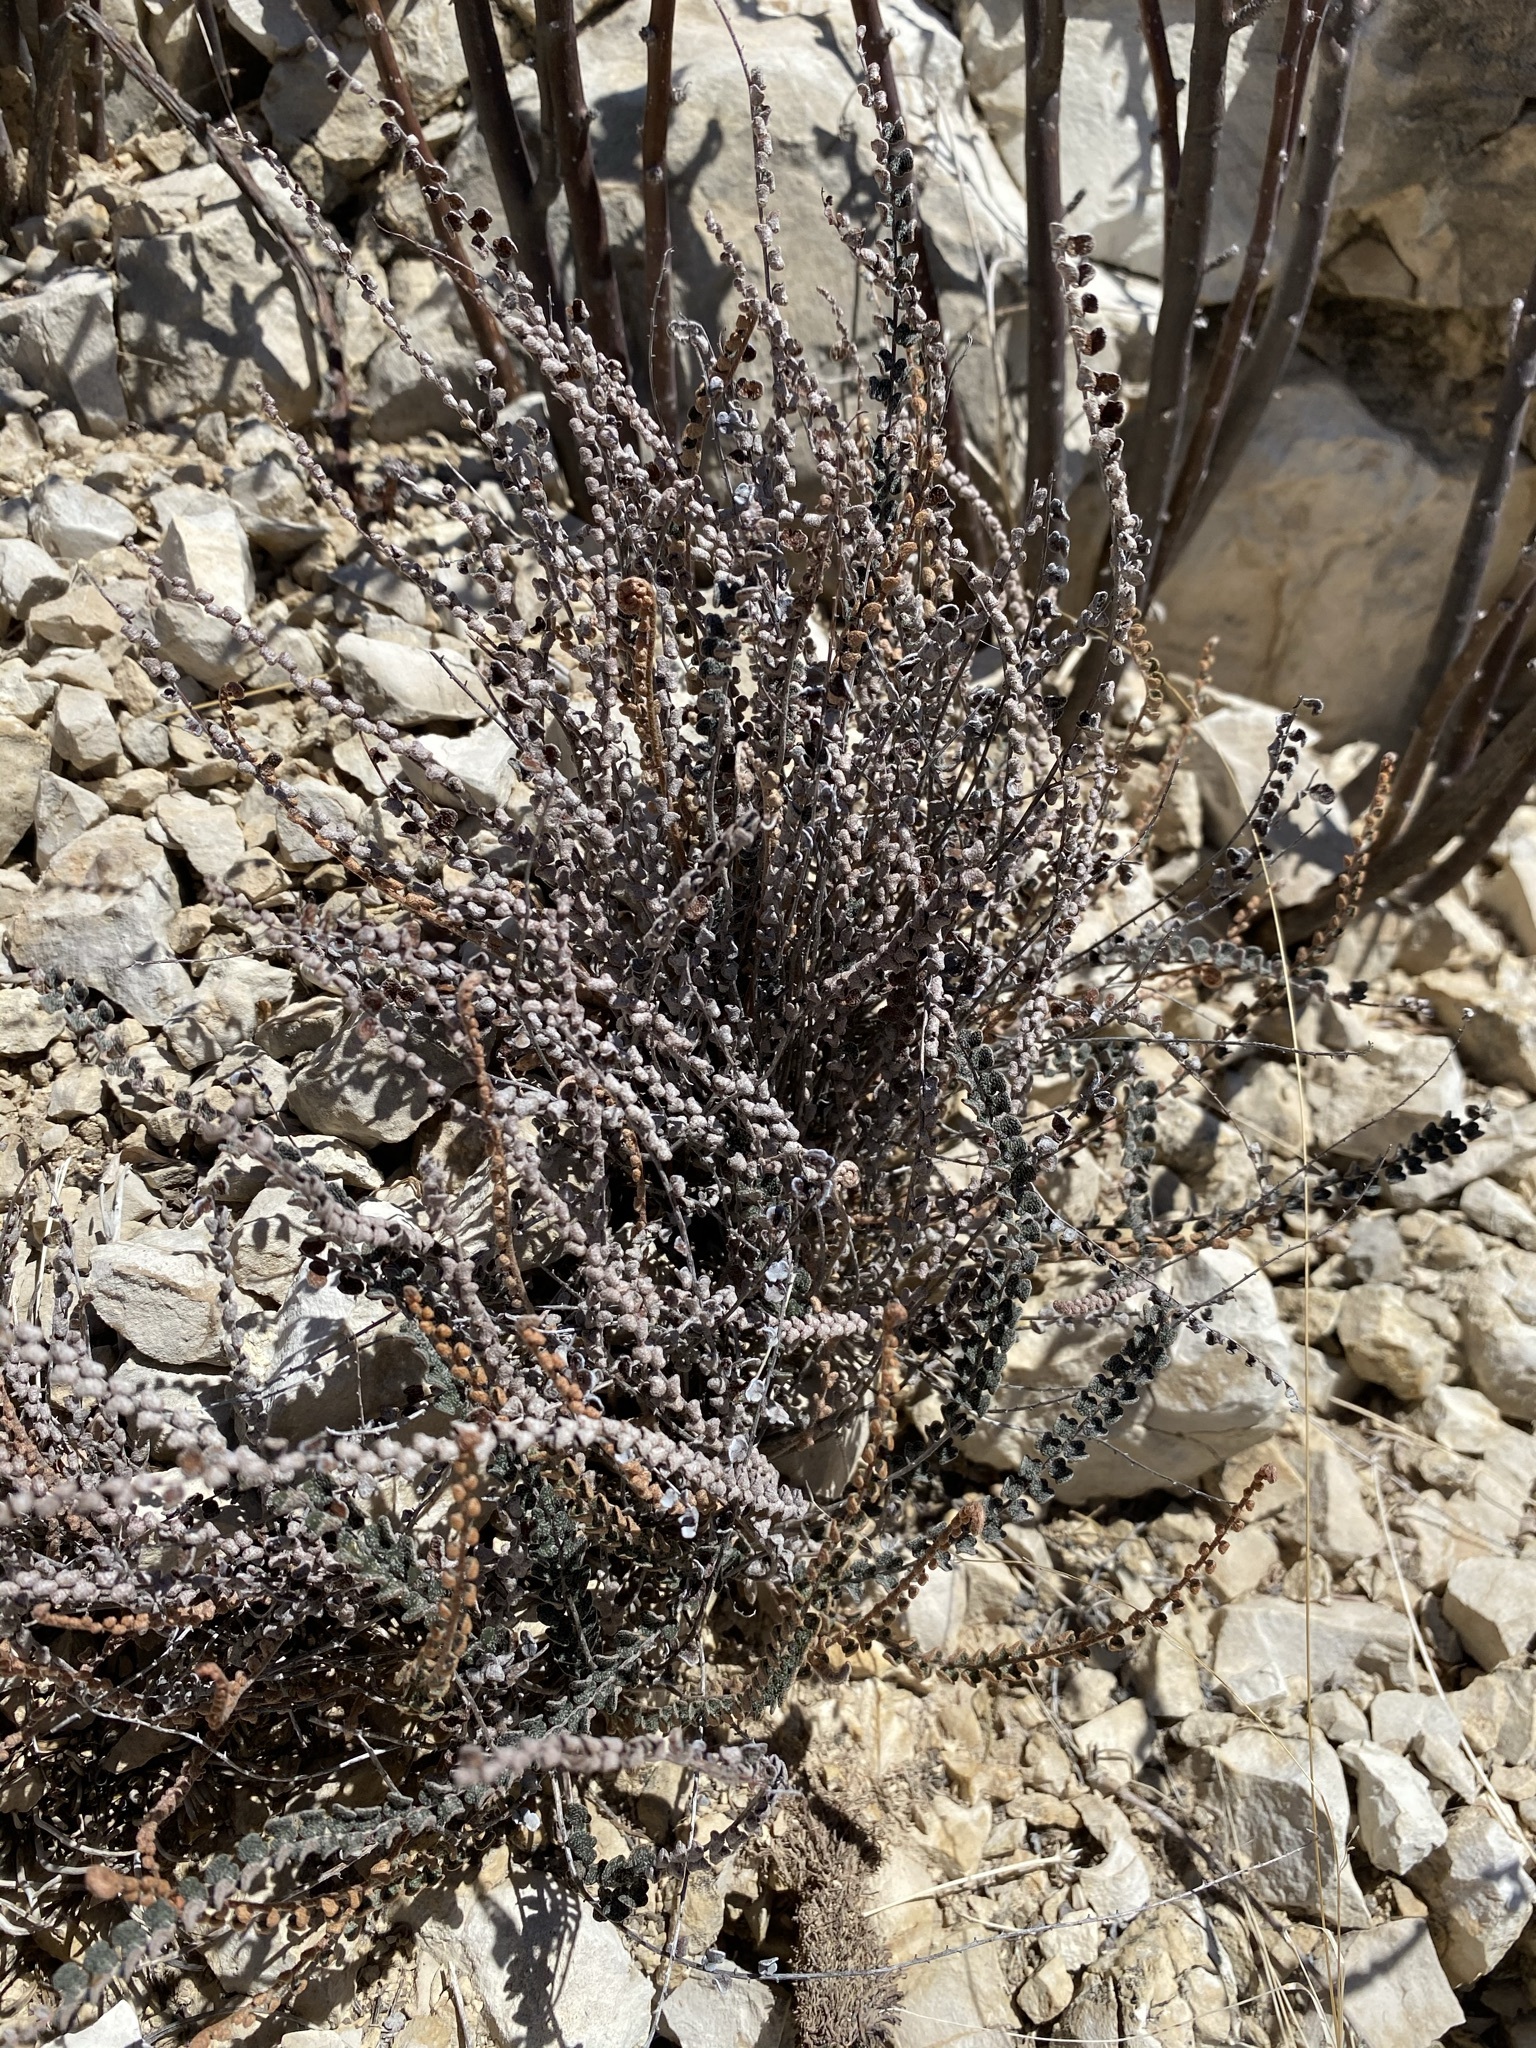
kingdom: Plantae
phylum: Tracheophyta
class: Polypodiopsida
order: Polypodiales
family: Pteridaceae
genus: Astrolepis
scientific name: Astrolepis cochisensis
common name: Scaly cloak fern
